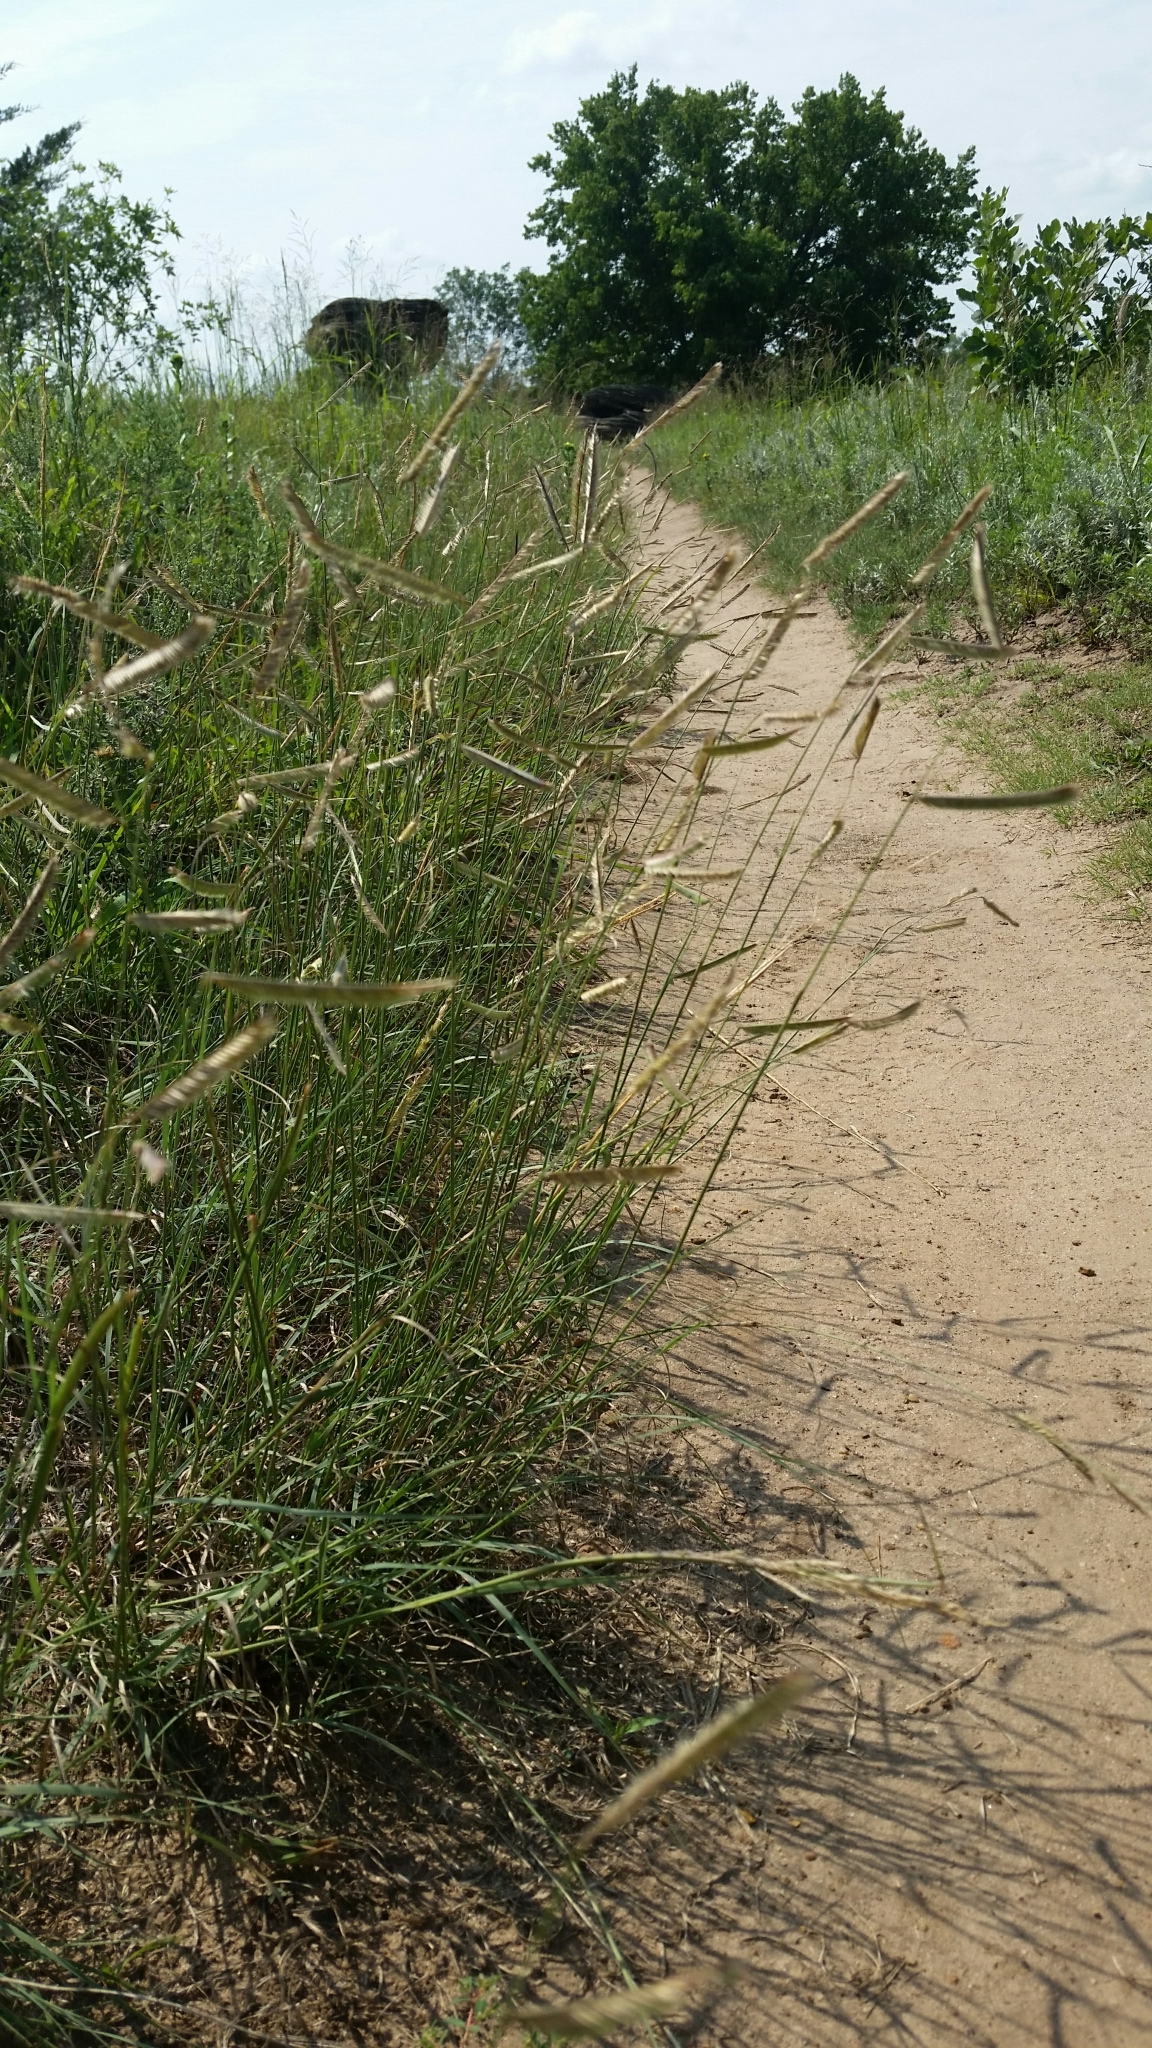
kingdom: Plantae
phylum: Tracheophyta
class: Liliopsida
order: Poales
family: Poaceae
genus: Bouteloua
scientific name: Bouteloua gracilis
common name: Blue grama
